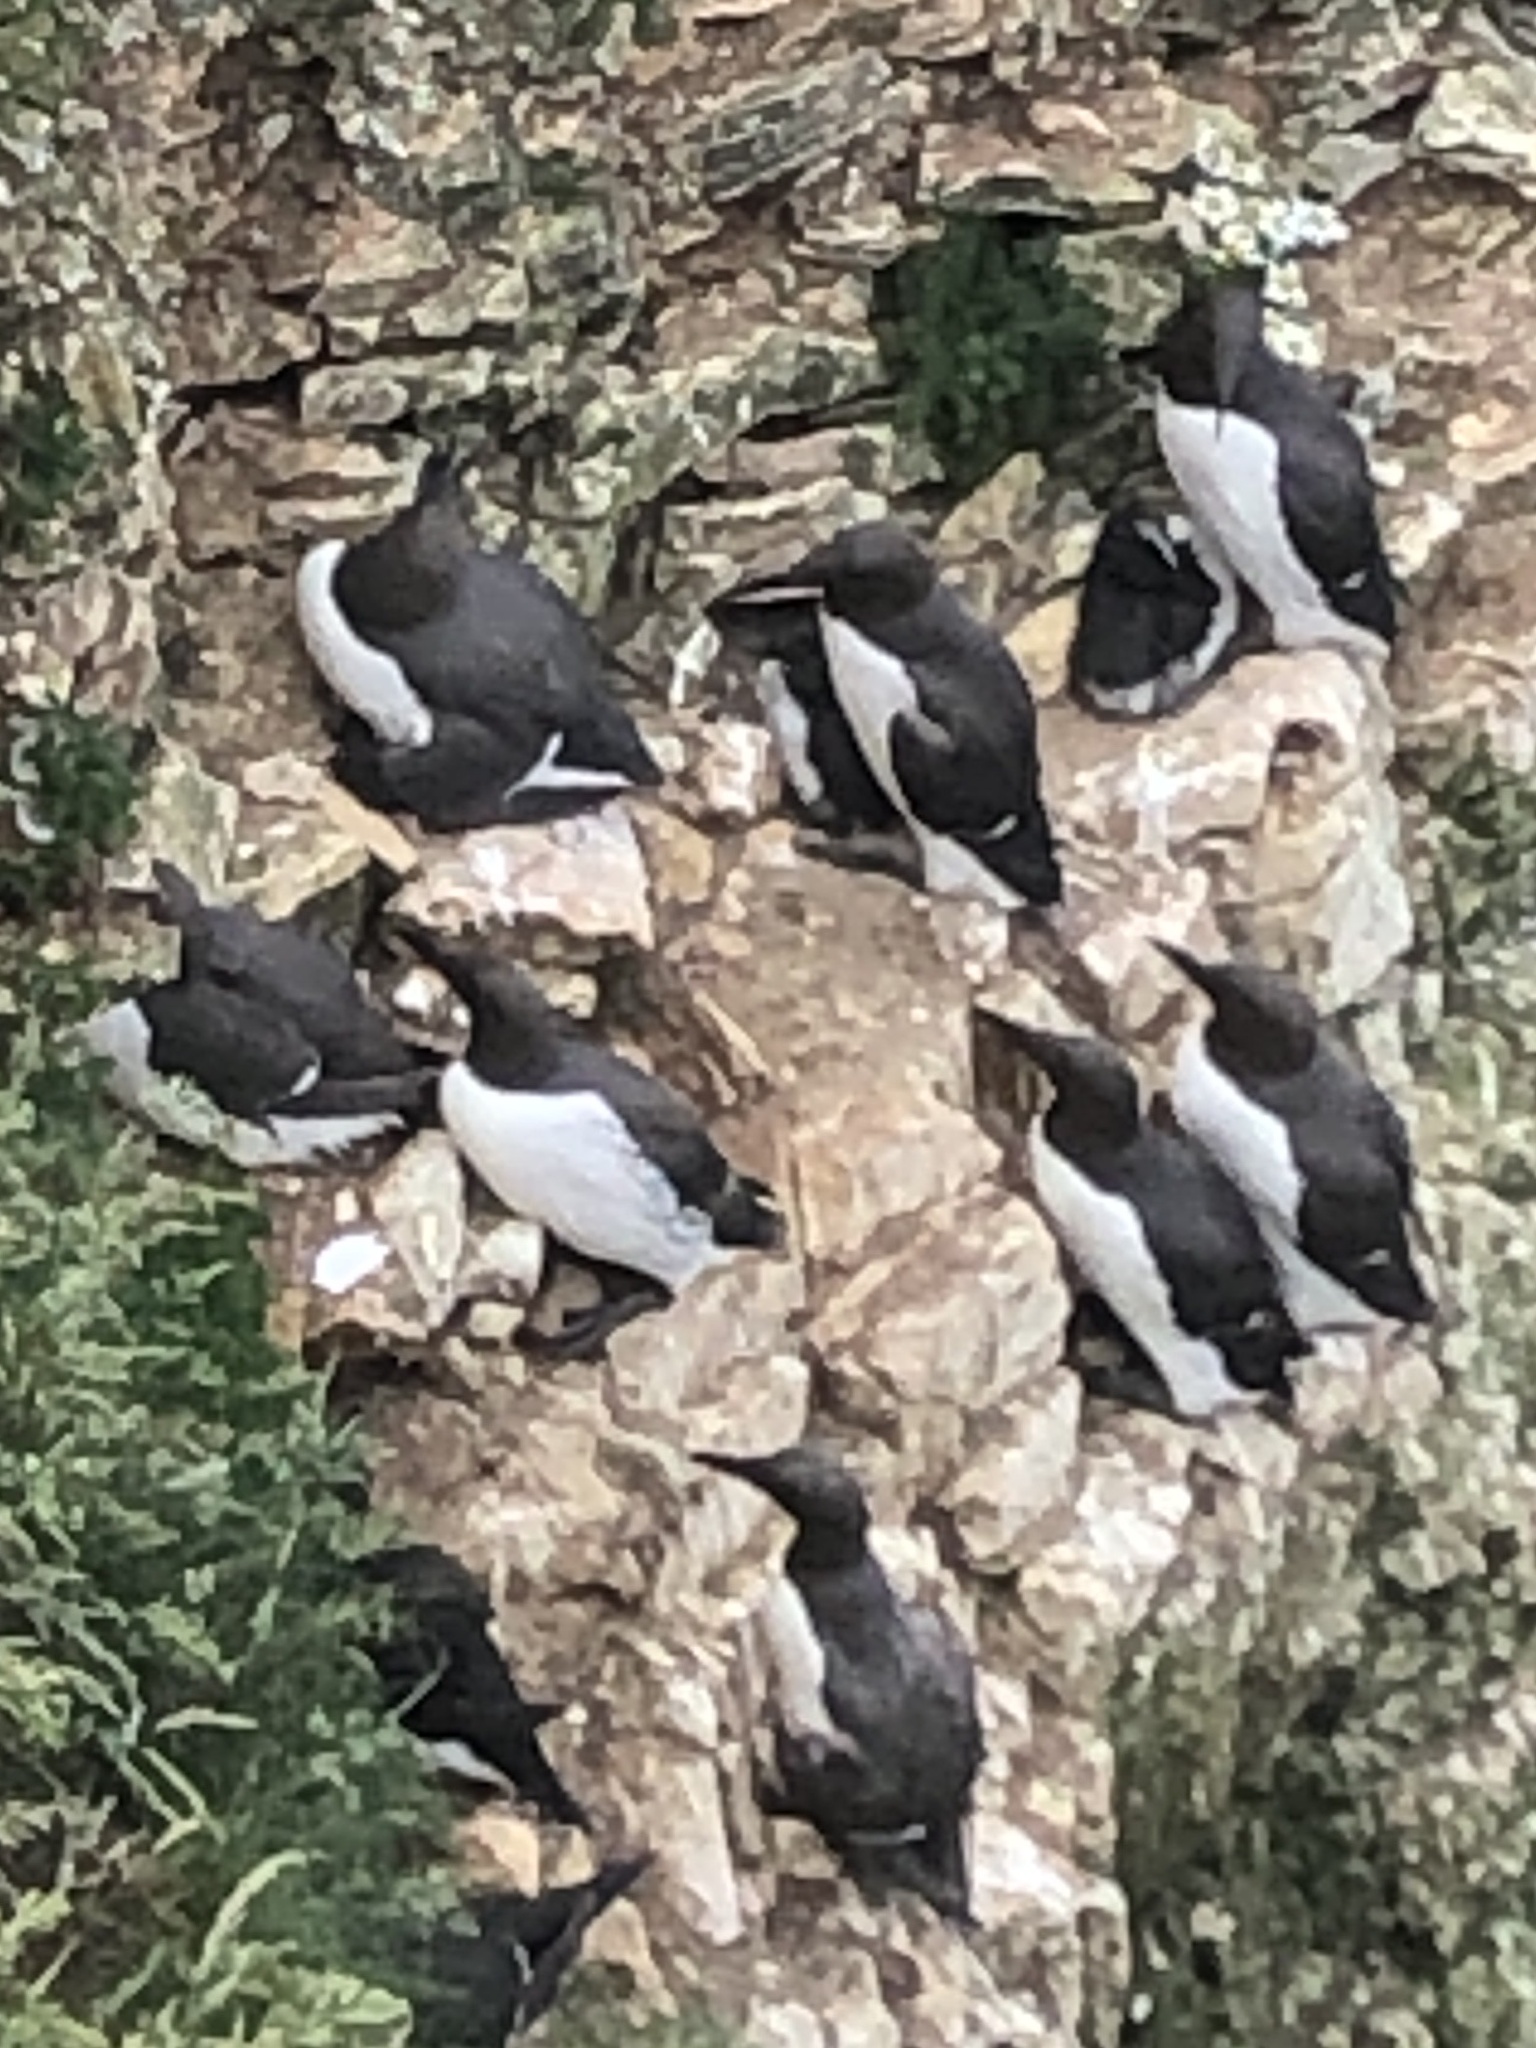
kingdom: Animalia
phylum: Chordata
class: Aves
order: Charadriiformes
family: Alcidae
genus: Uria
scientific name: Uria aalge
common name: Common murre
